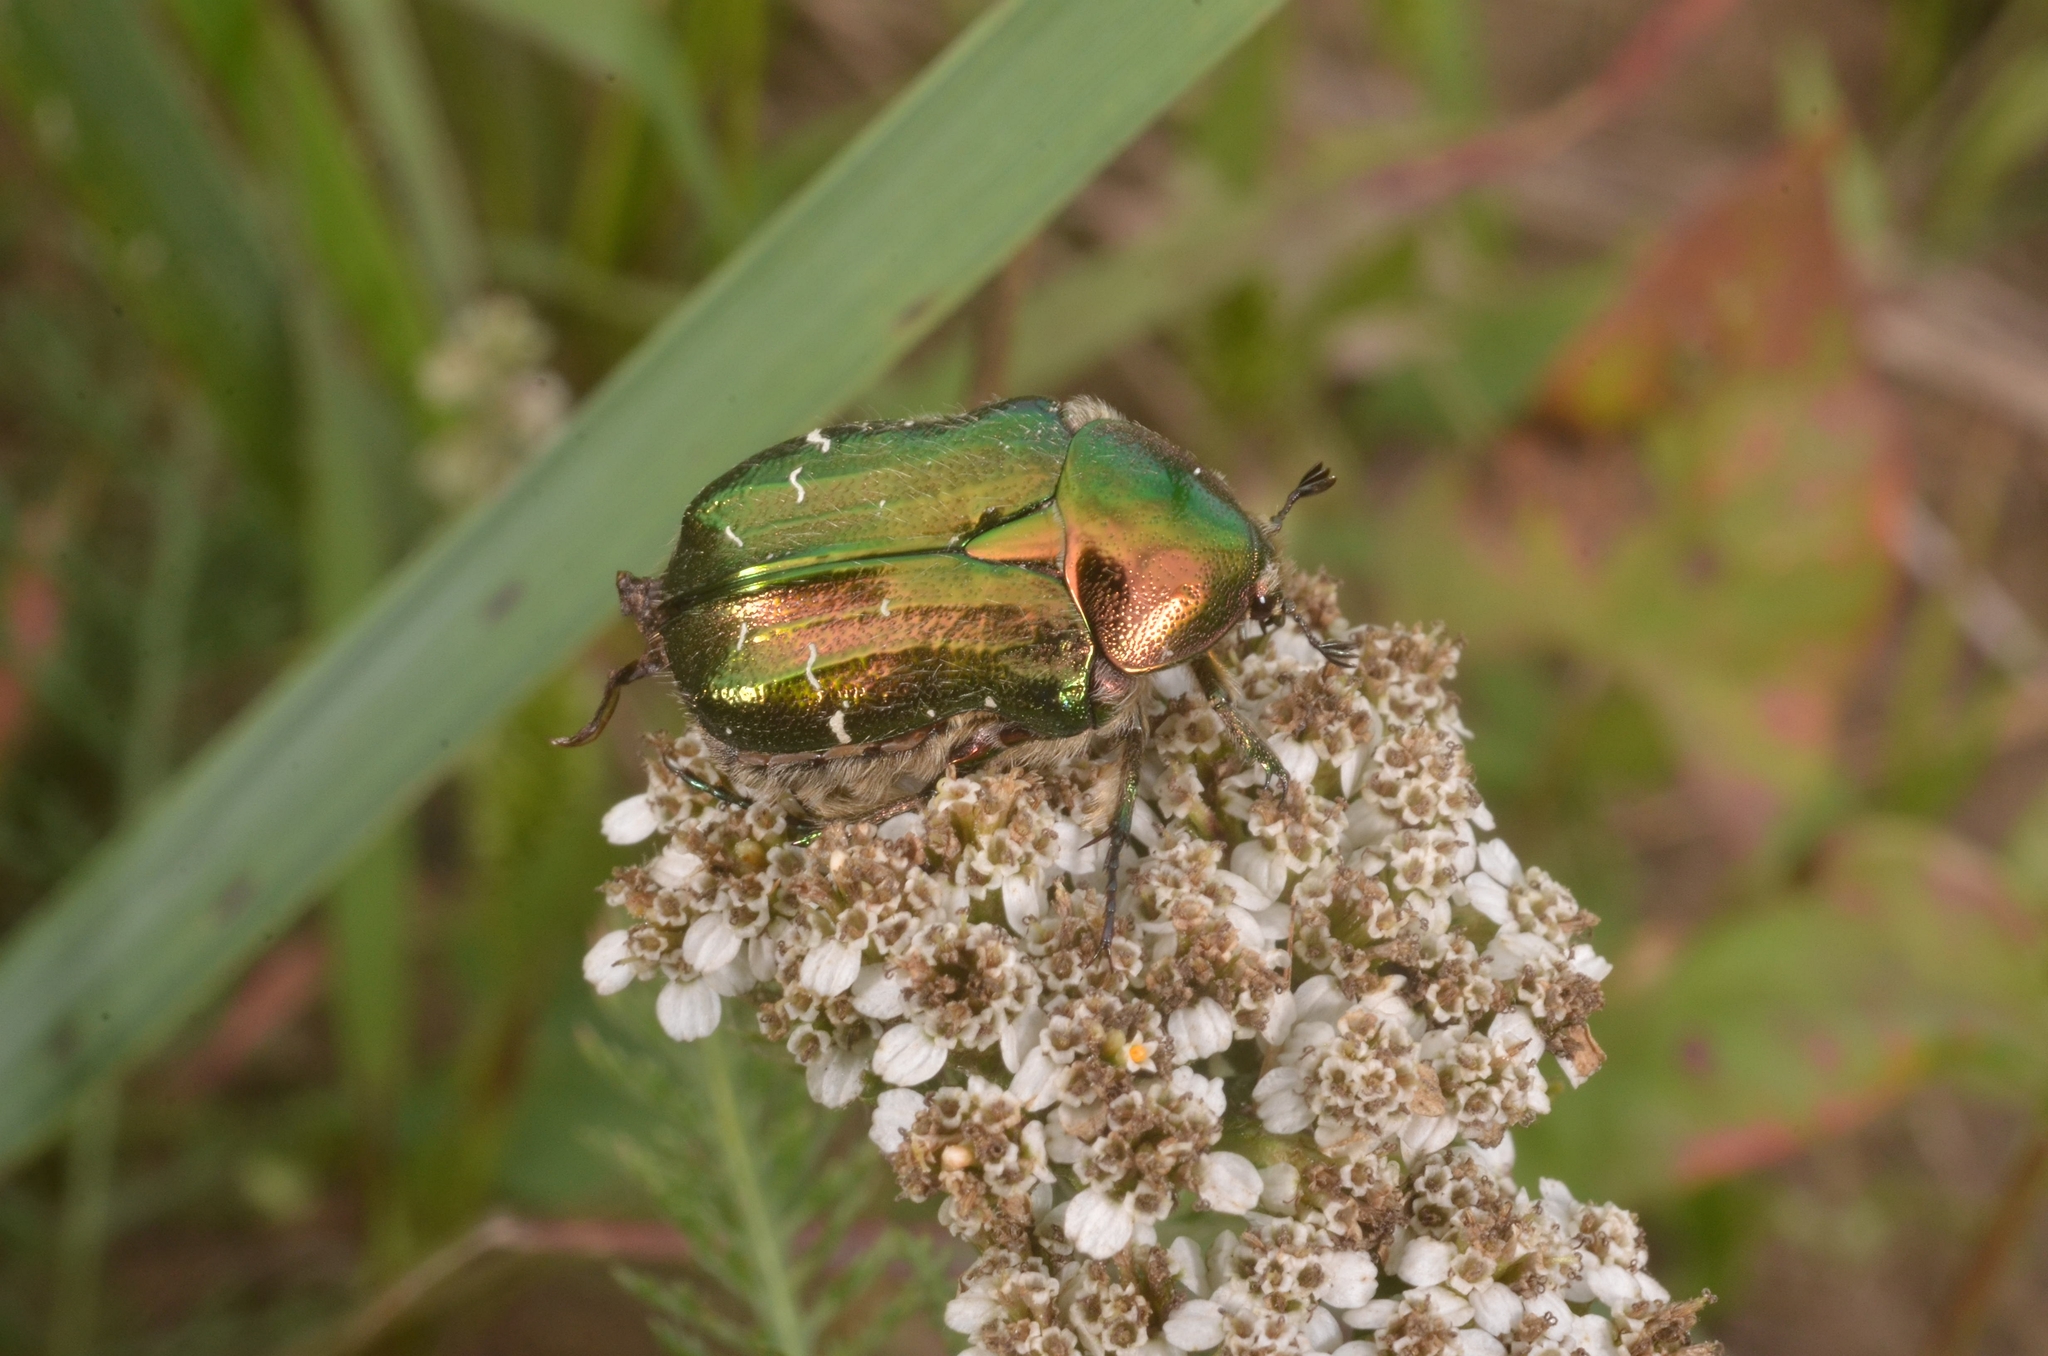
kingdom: Animalia
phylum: Arthropoda
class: Insecta
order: Coleoptera
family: Scarabaeidae
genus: Cetonia
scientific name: Cetonia aurata
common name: Rose chafer
